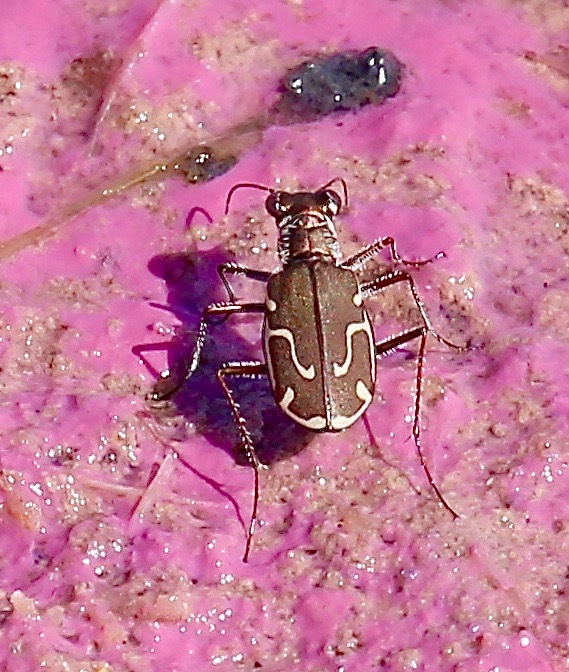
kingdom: Animalia
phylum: Arthropoda
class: Insecta
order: Coleoptera
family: Carabidae
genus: Cicindela
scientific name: Cicindela tenuisignata
